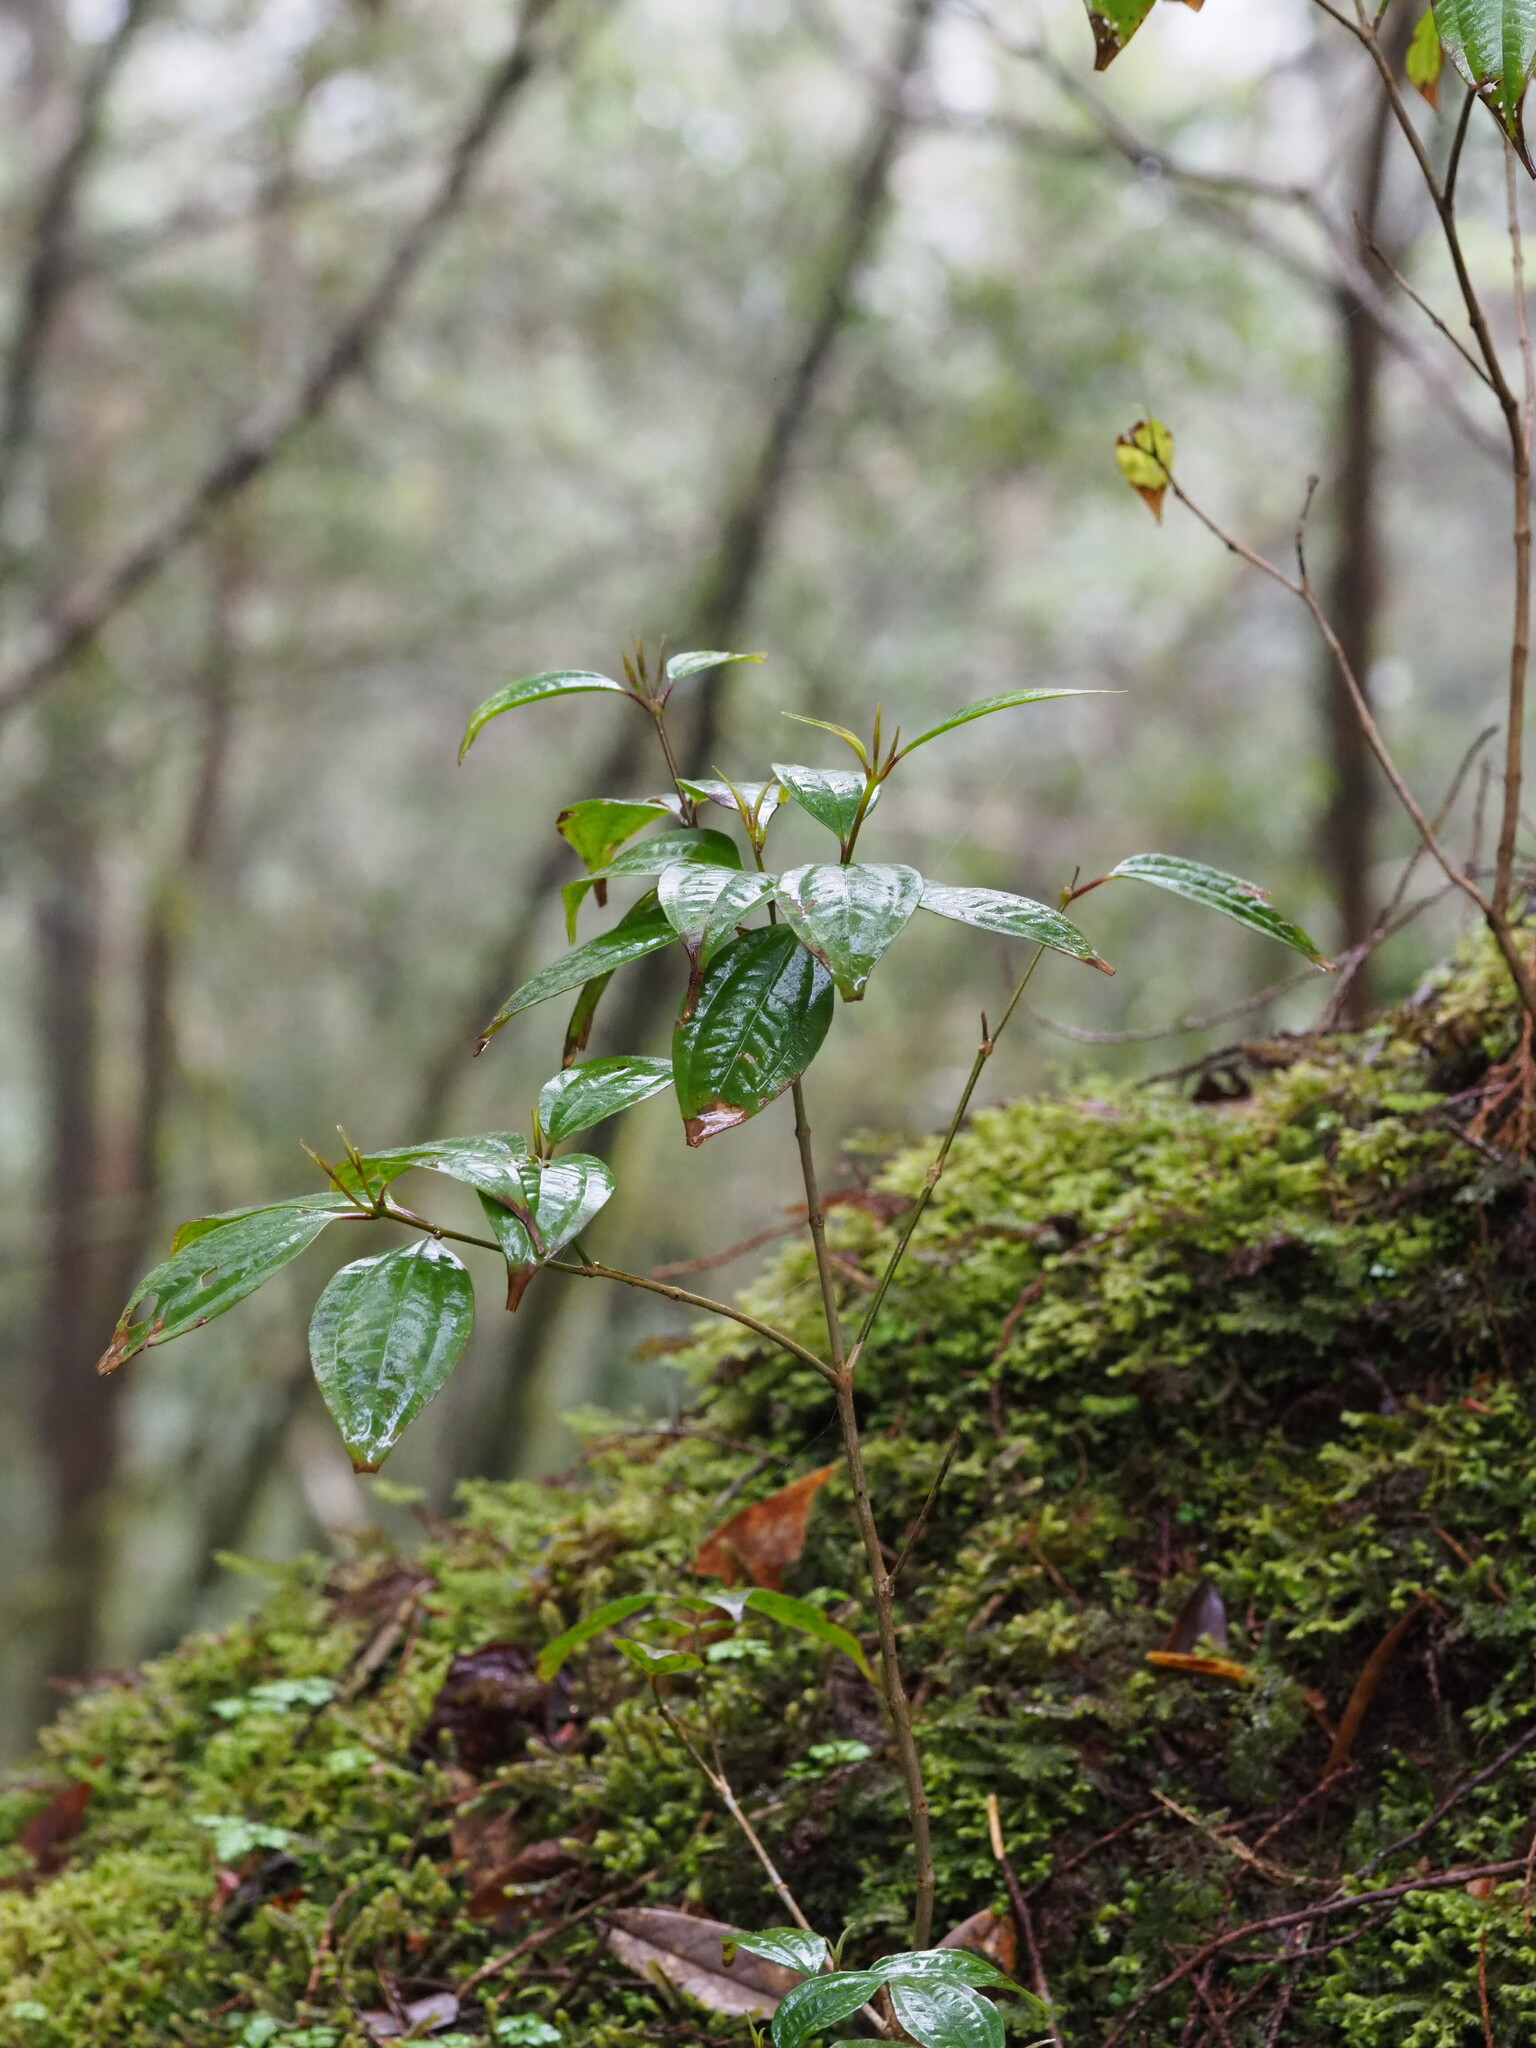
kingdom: Plantae
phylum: Tracheophyta
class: Magnoliopsida
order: Myrtales
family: Melastomataceae
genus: Barthea
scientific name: Barthea barthei
